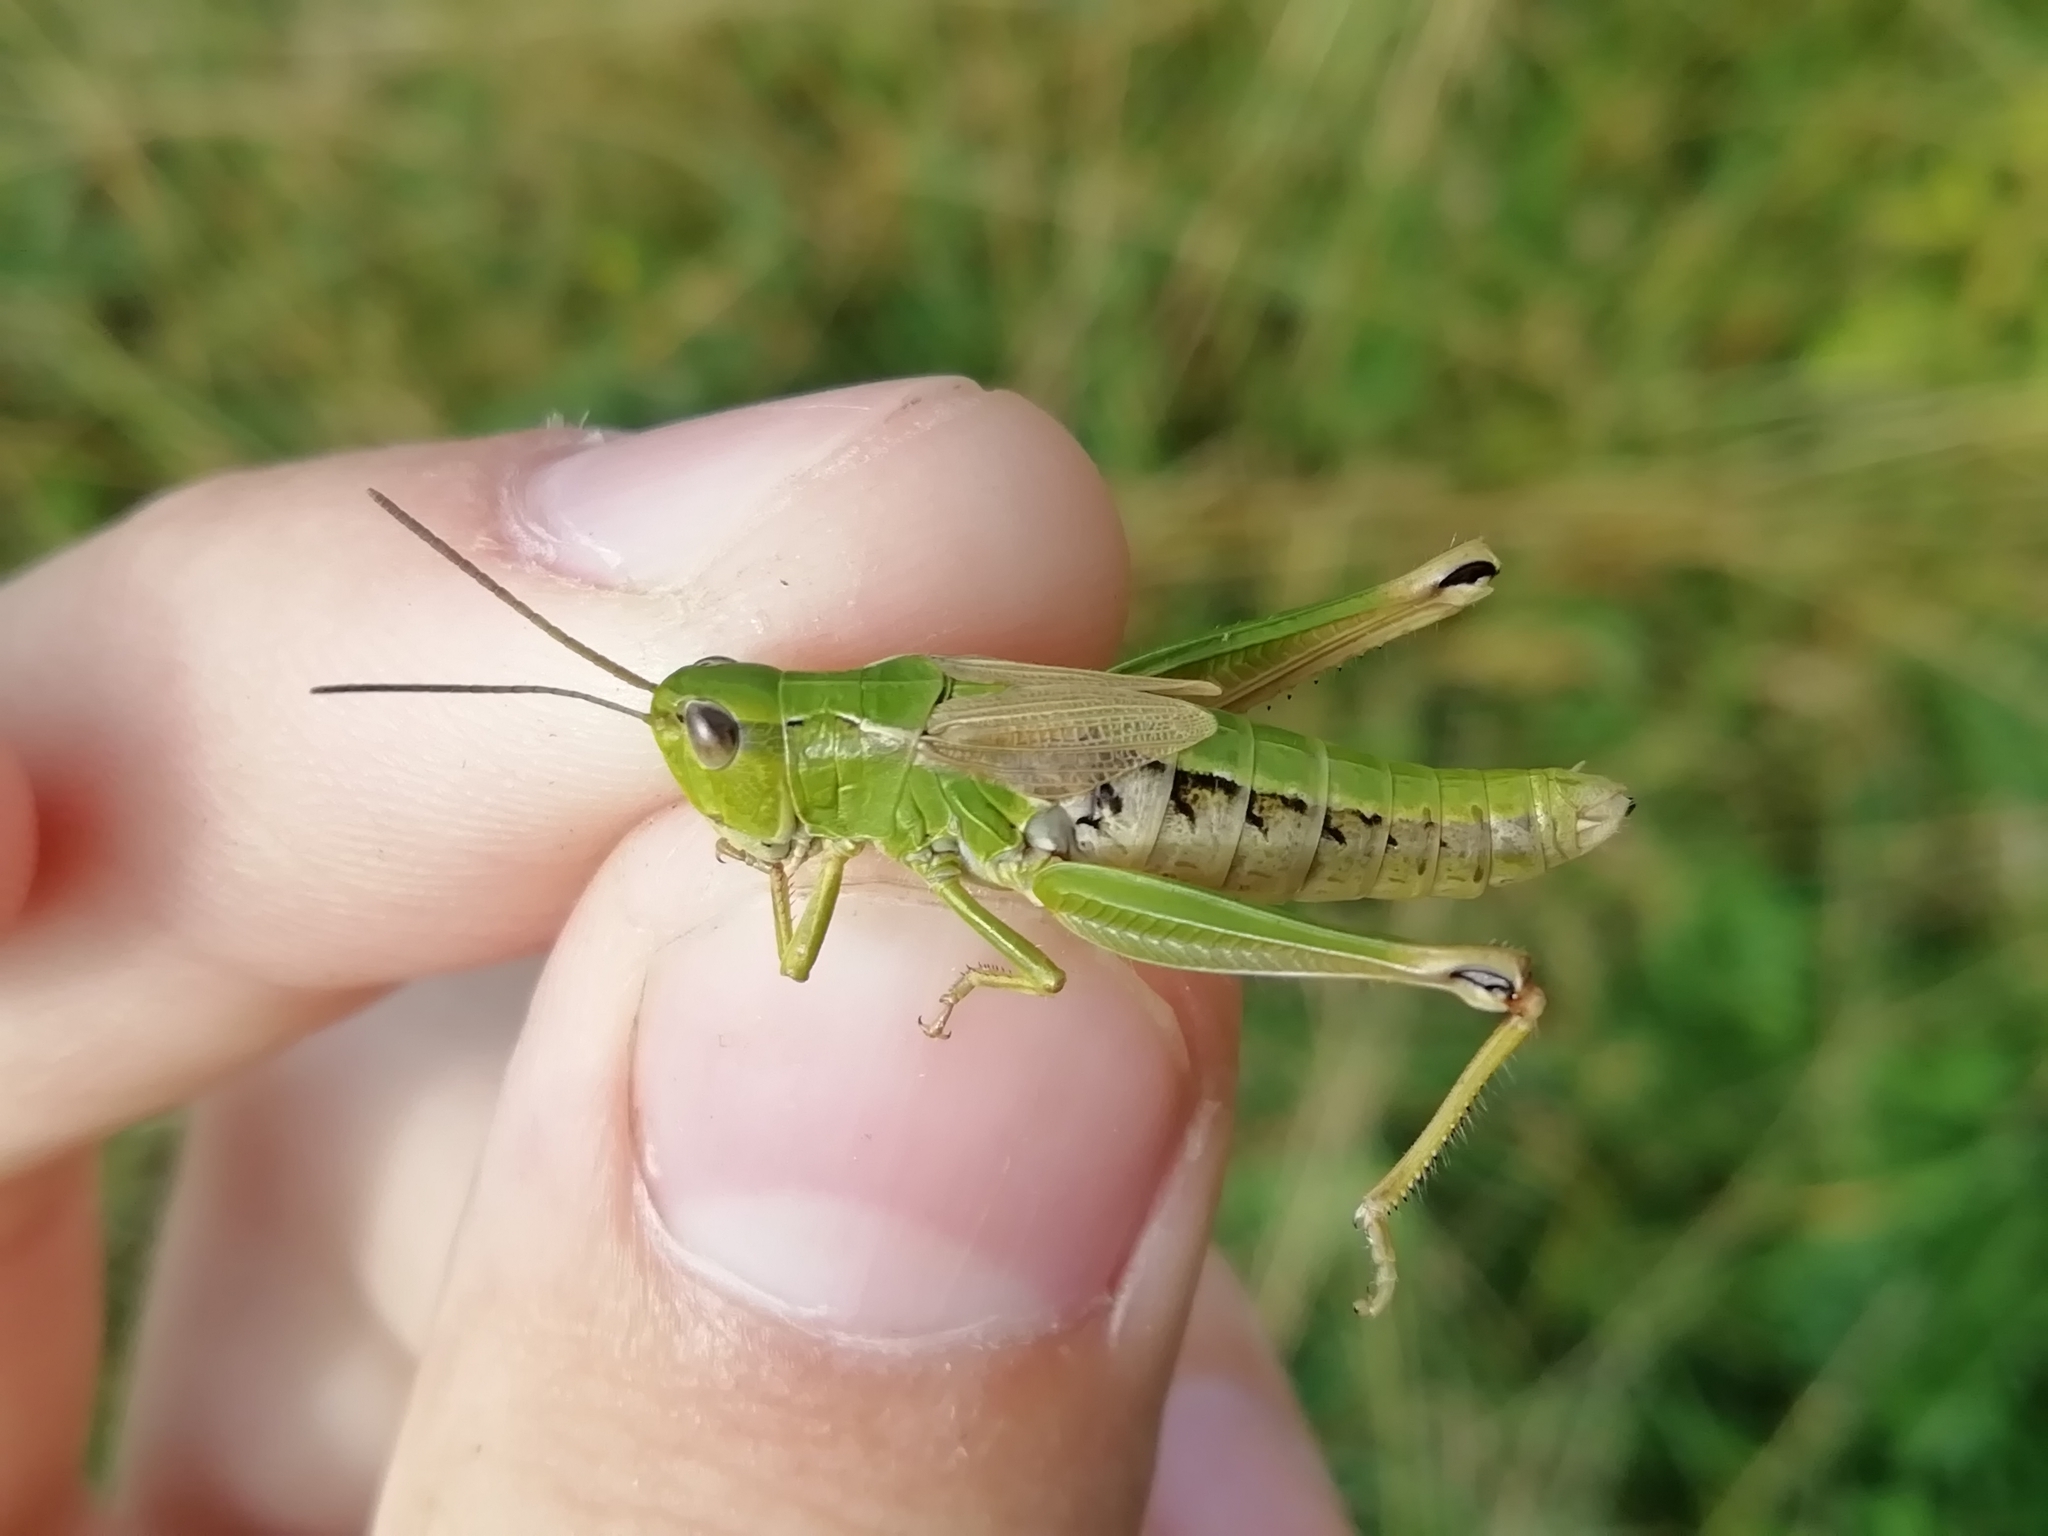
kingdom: Animalia
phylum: Arthropoda
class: Insecta
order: Orthoptera
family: Acrididae
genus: Chorthippus
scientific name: Chorthippus fallax
